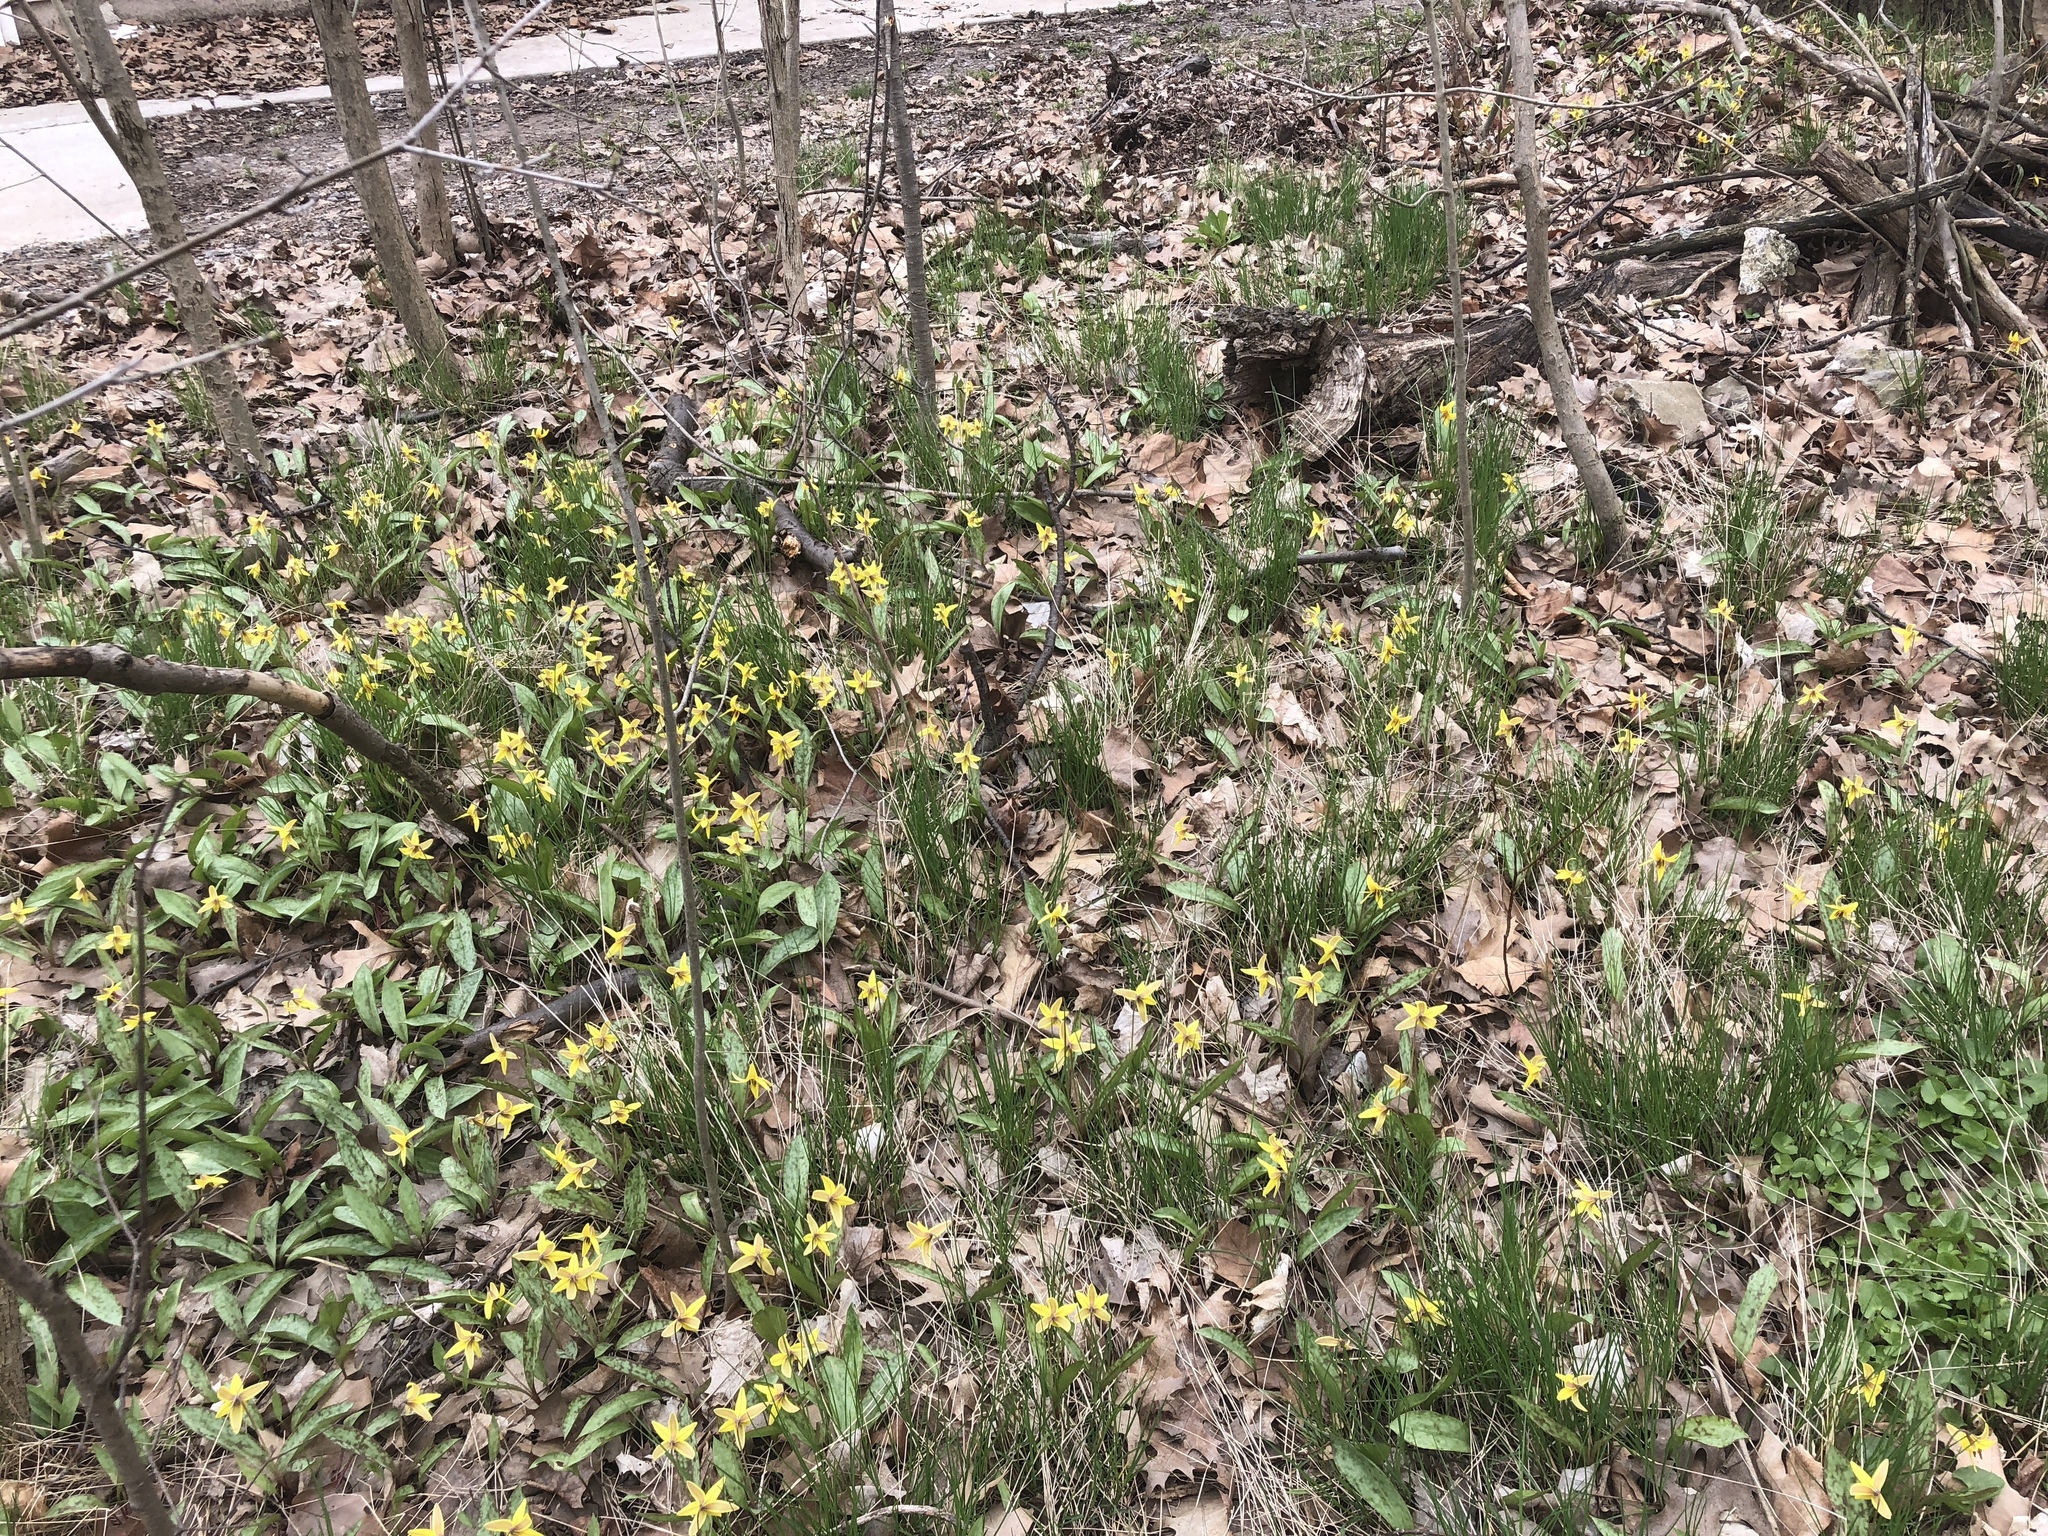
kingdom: Plantae
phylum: Tracheophyta
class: Liliopsida
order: Liliales
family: Liliaceae
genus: Erythronium
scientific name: Erythronium americanum
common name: Yellow adder's-tongue
